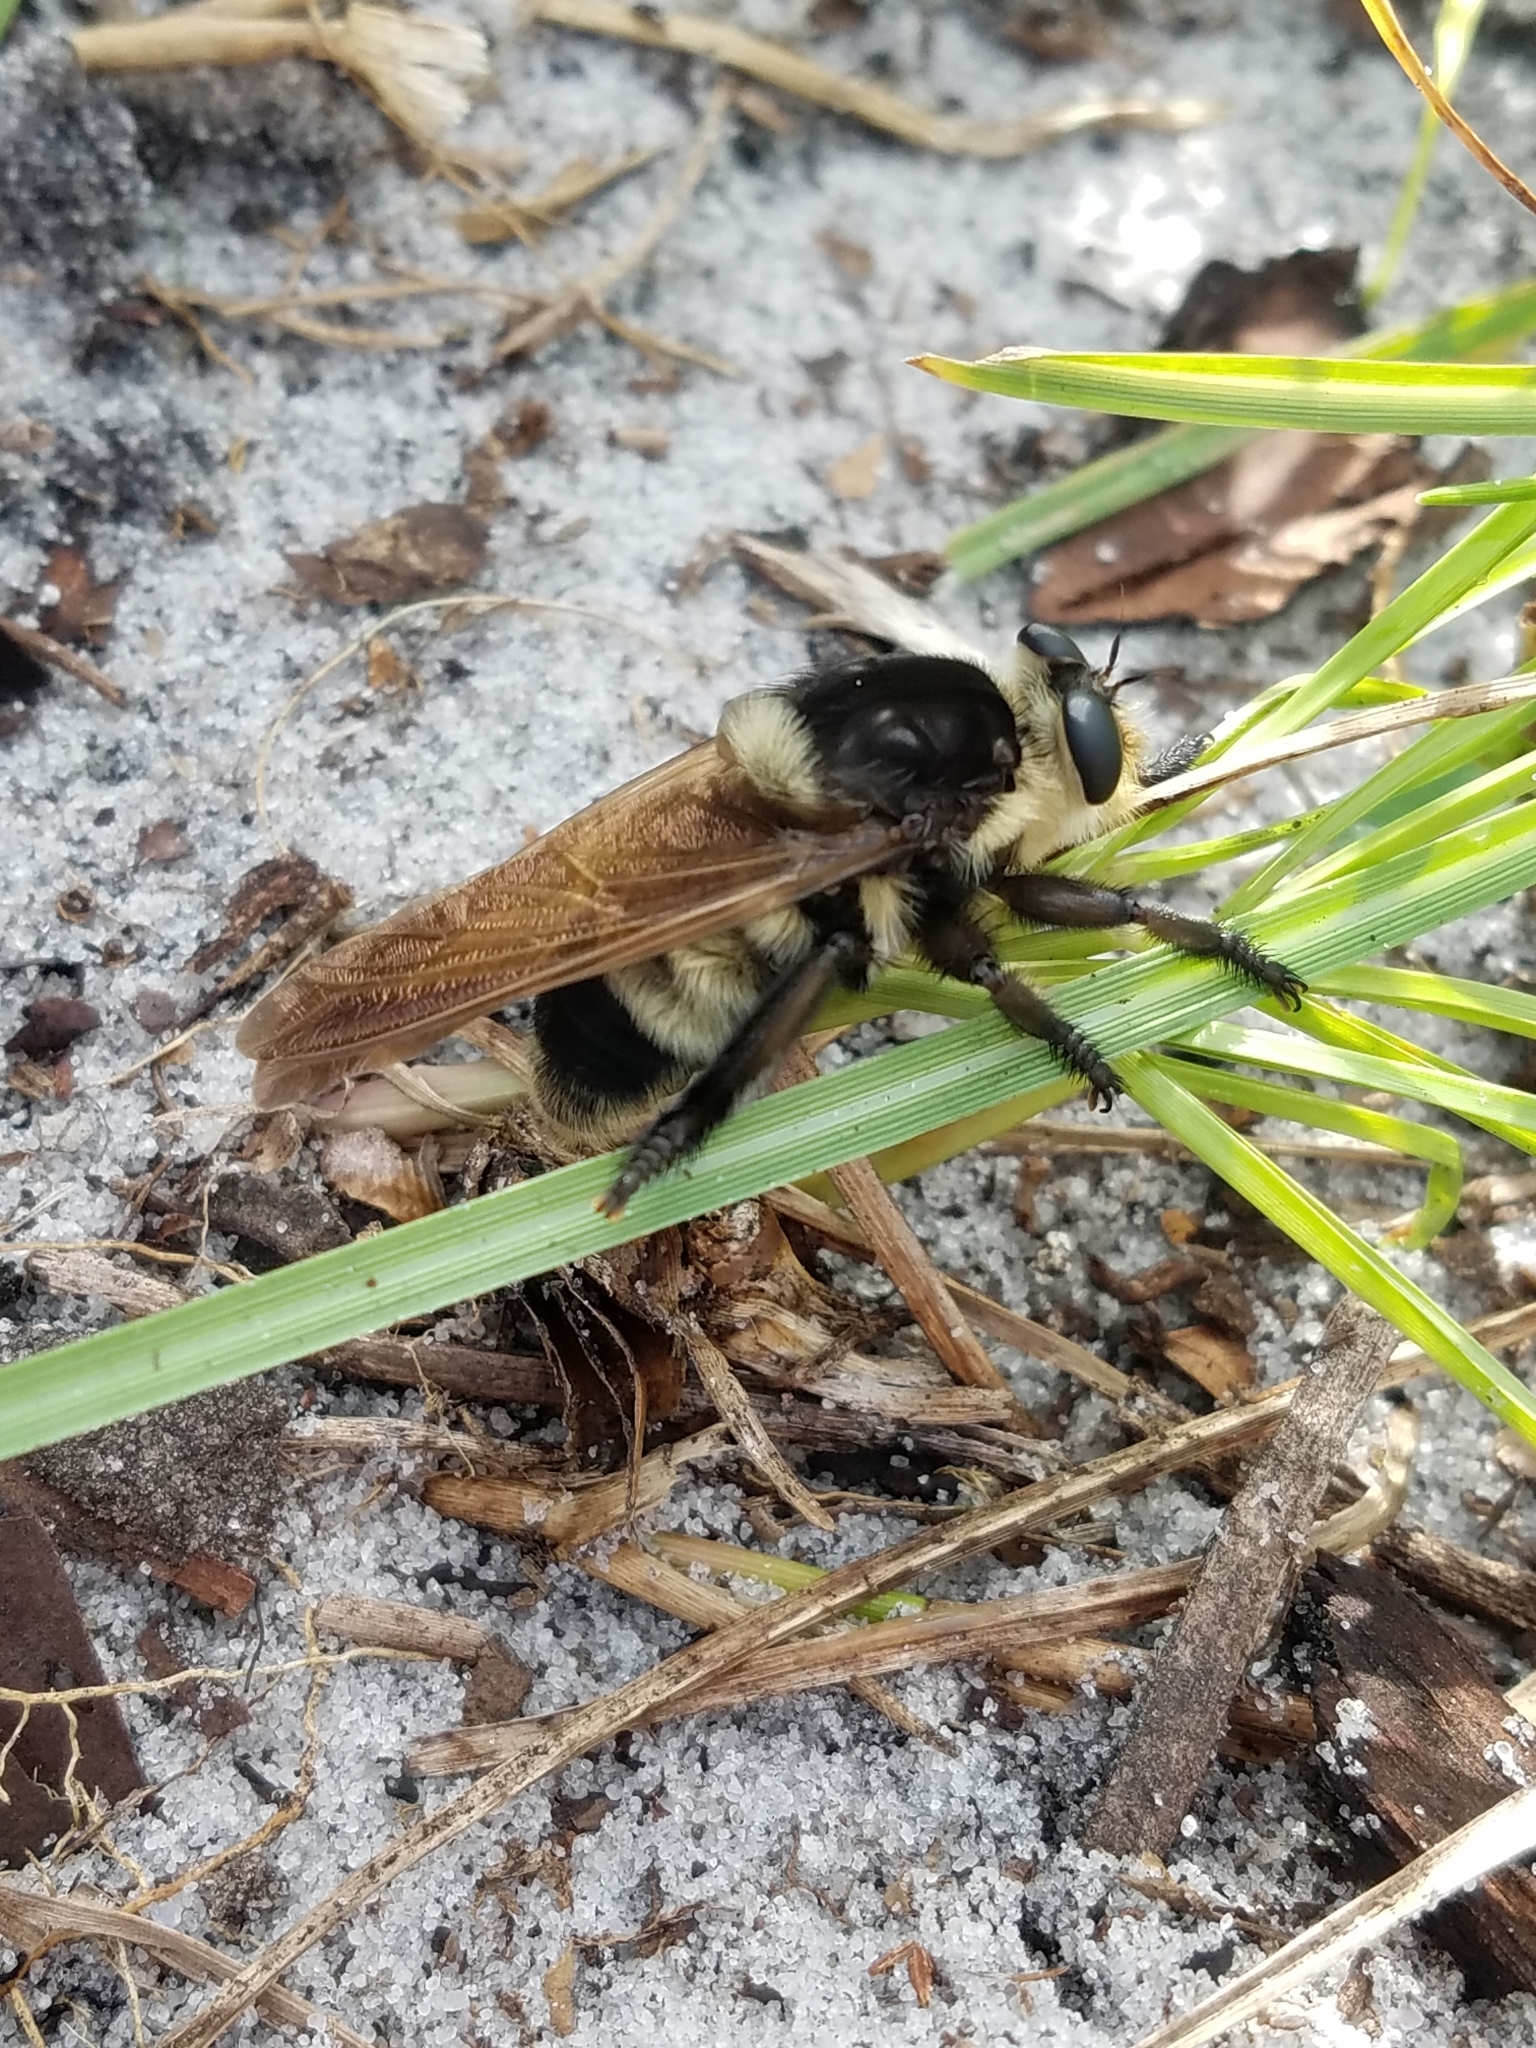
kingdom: Animalia
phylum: Arthropoda
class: Insecta
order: Diptera
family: Asilidae
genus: Mallophora
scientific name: Mallophora bomboides
